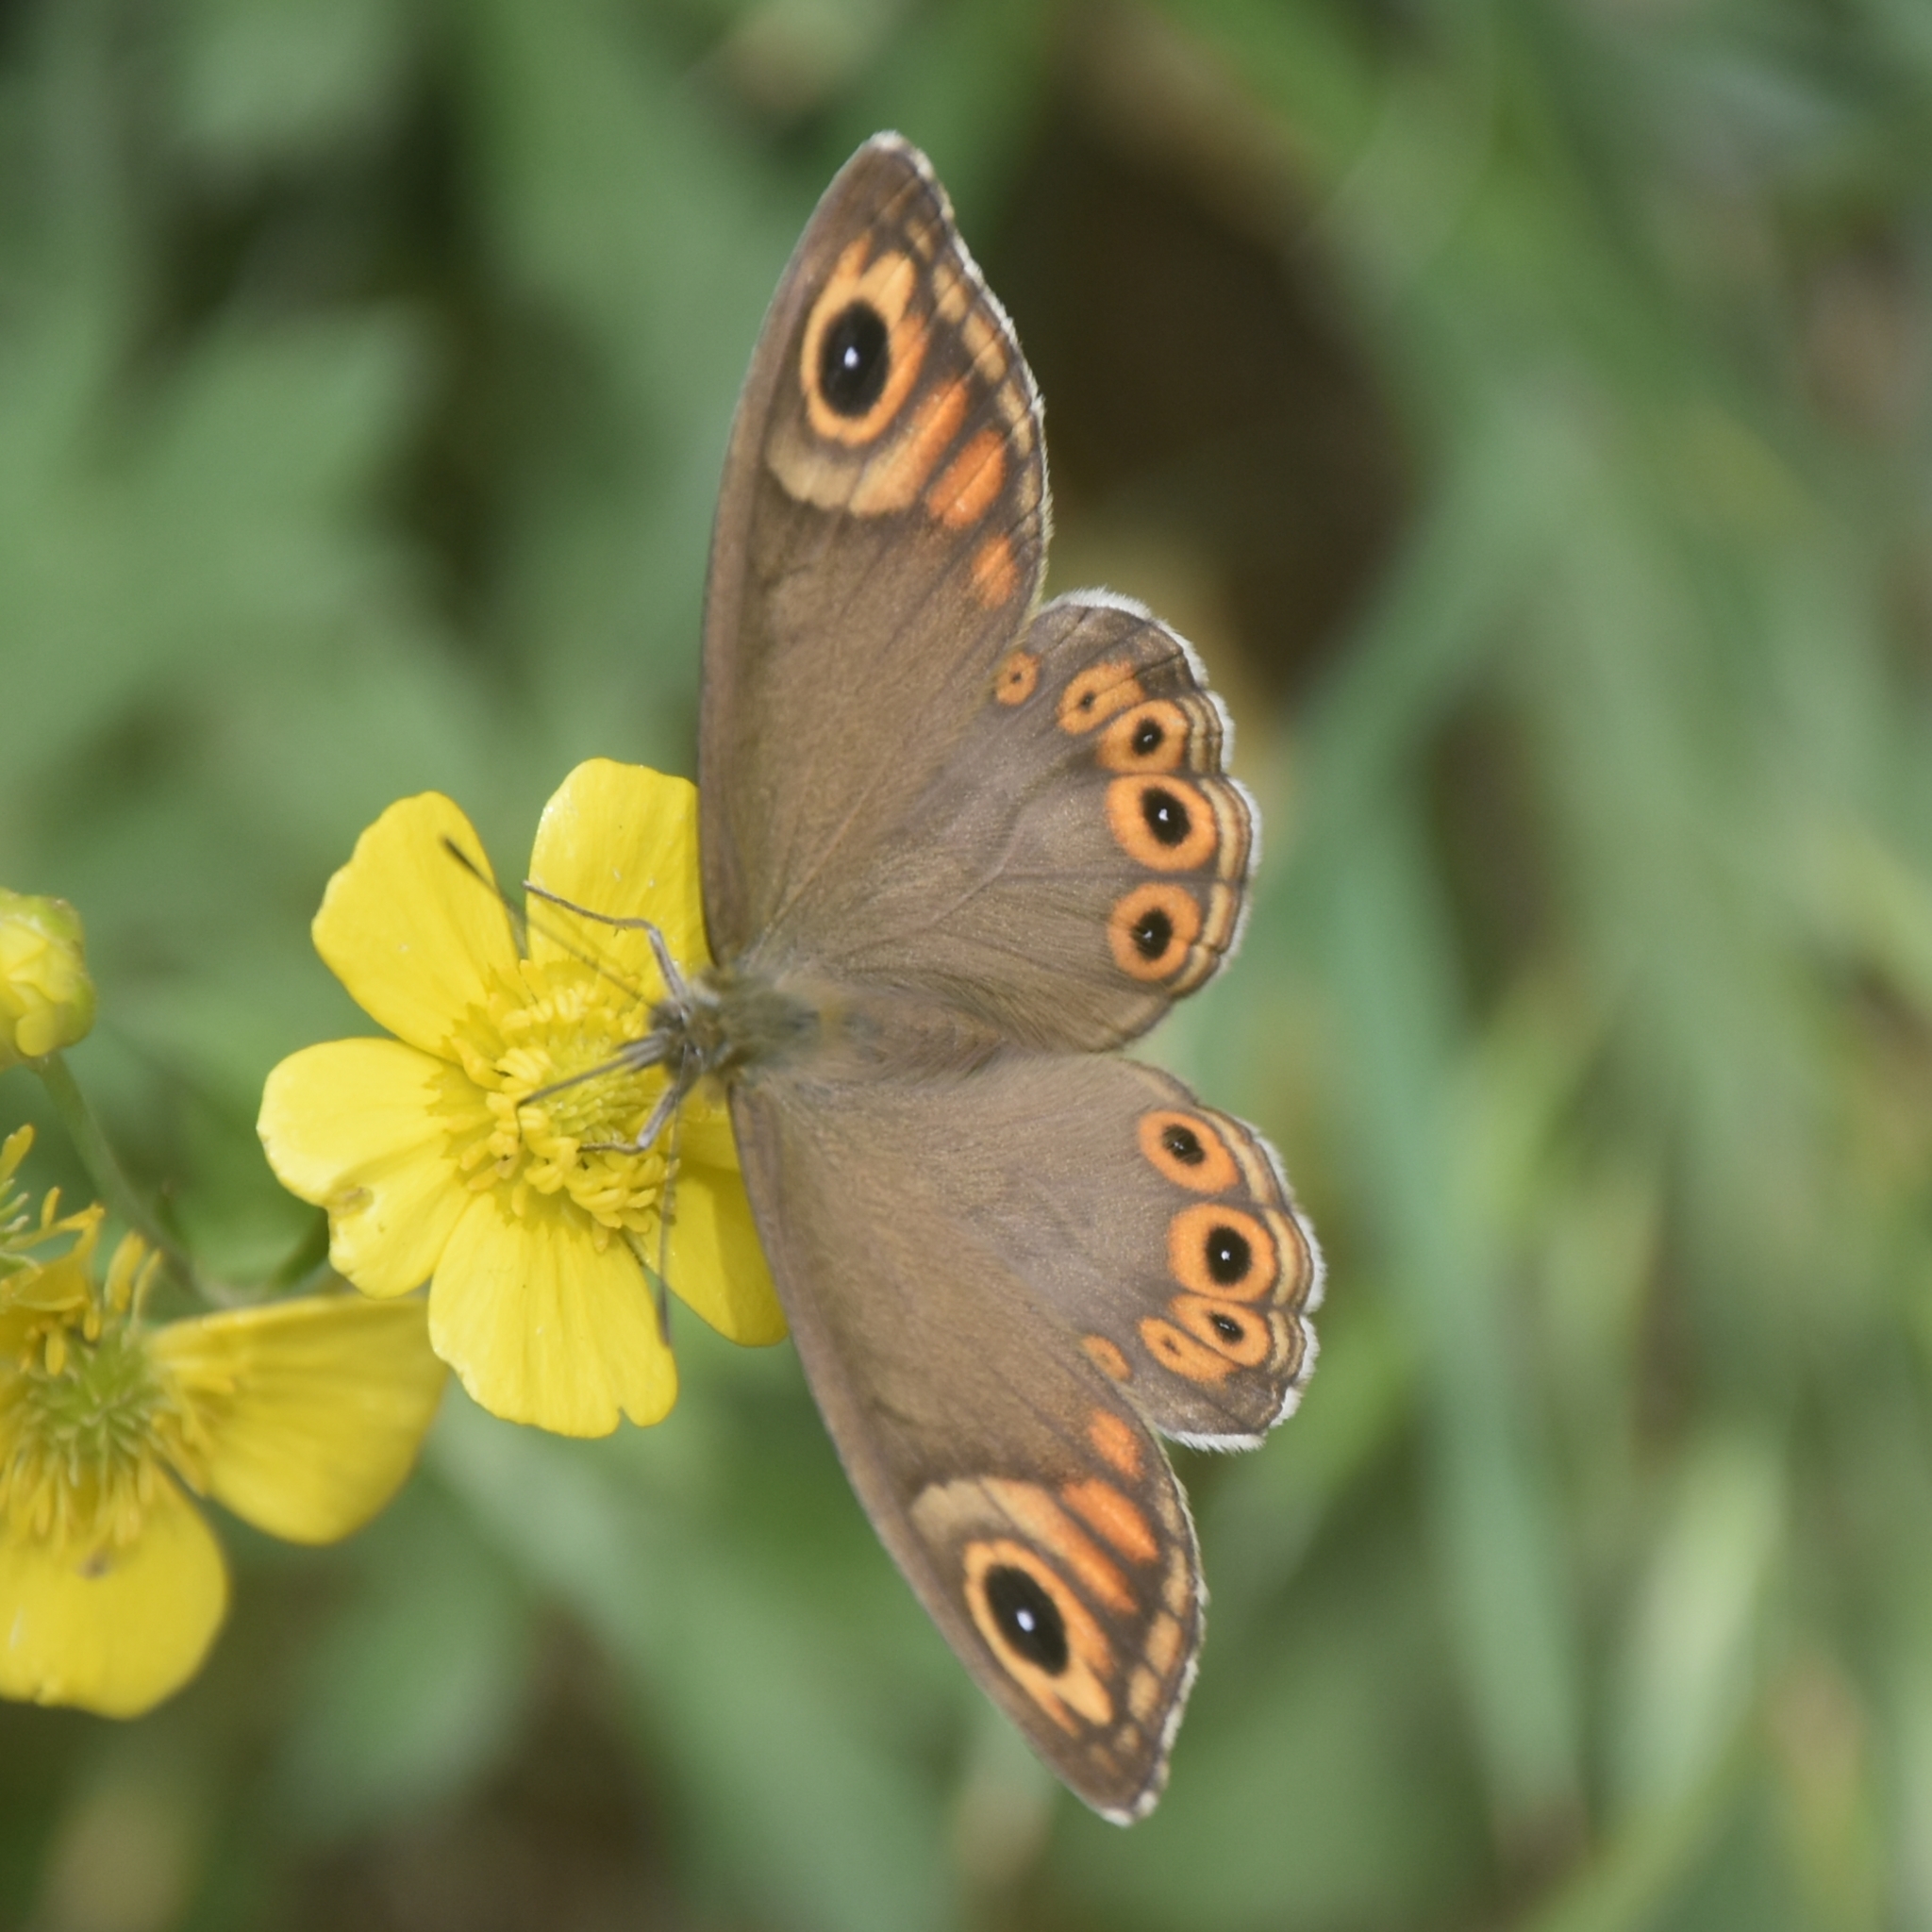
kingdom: Animalia
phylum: Arthropoda
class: Insecta
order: Lepidoptera
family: Nymphalidae
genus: Pararge
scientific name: Pararge Lasiommata schakra
